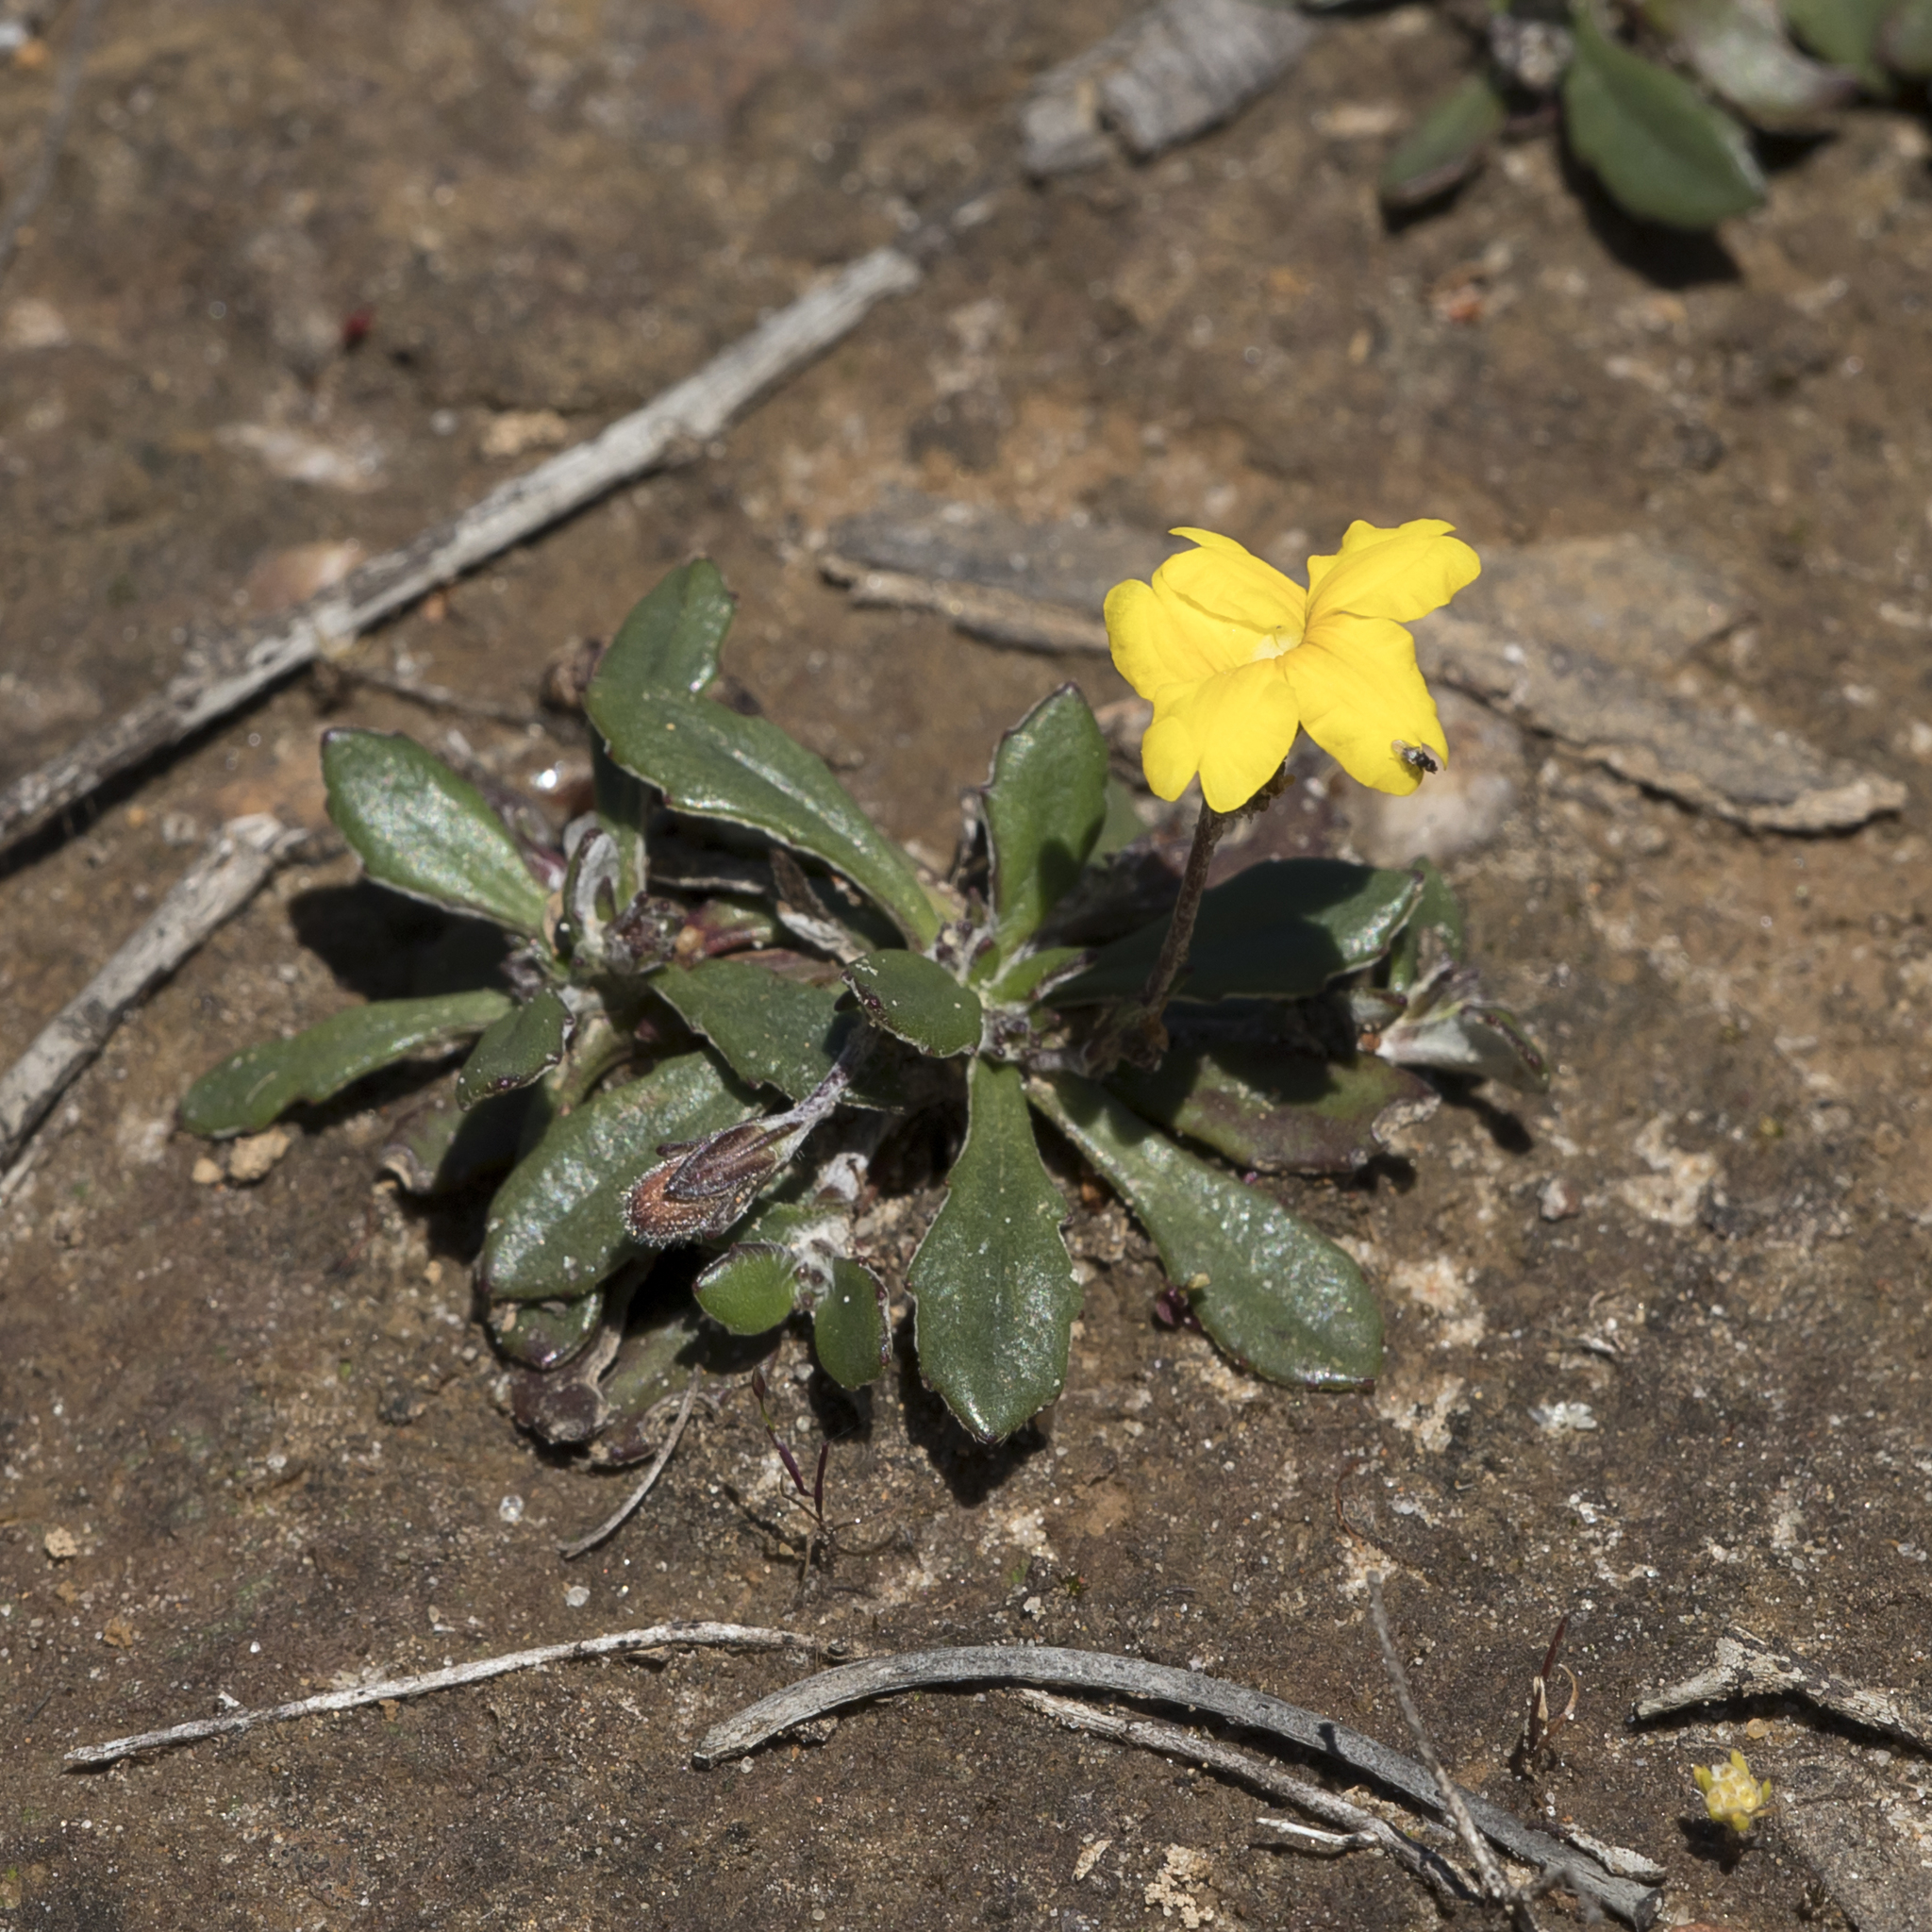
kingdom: Plantae
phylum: Tracheophyta
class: Magnoliopsida
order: Asterales
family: Goodeniaceae
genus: Goodenia
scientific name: Goodenia blackiana
